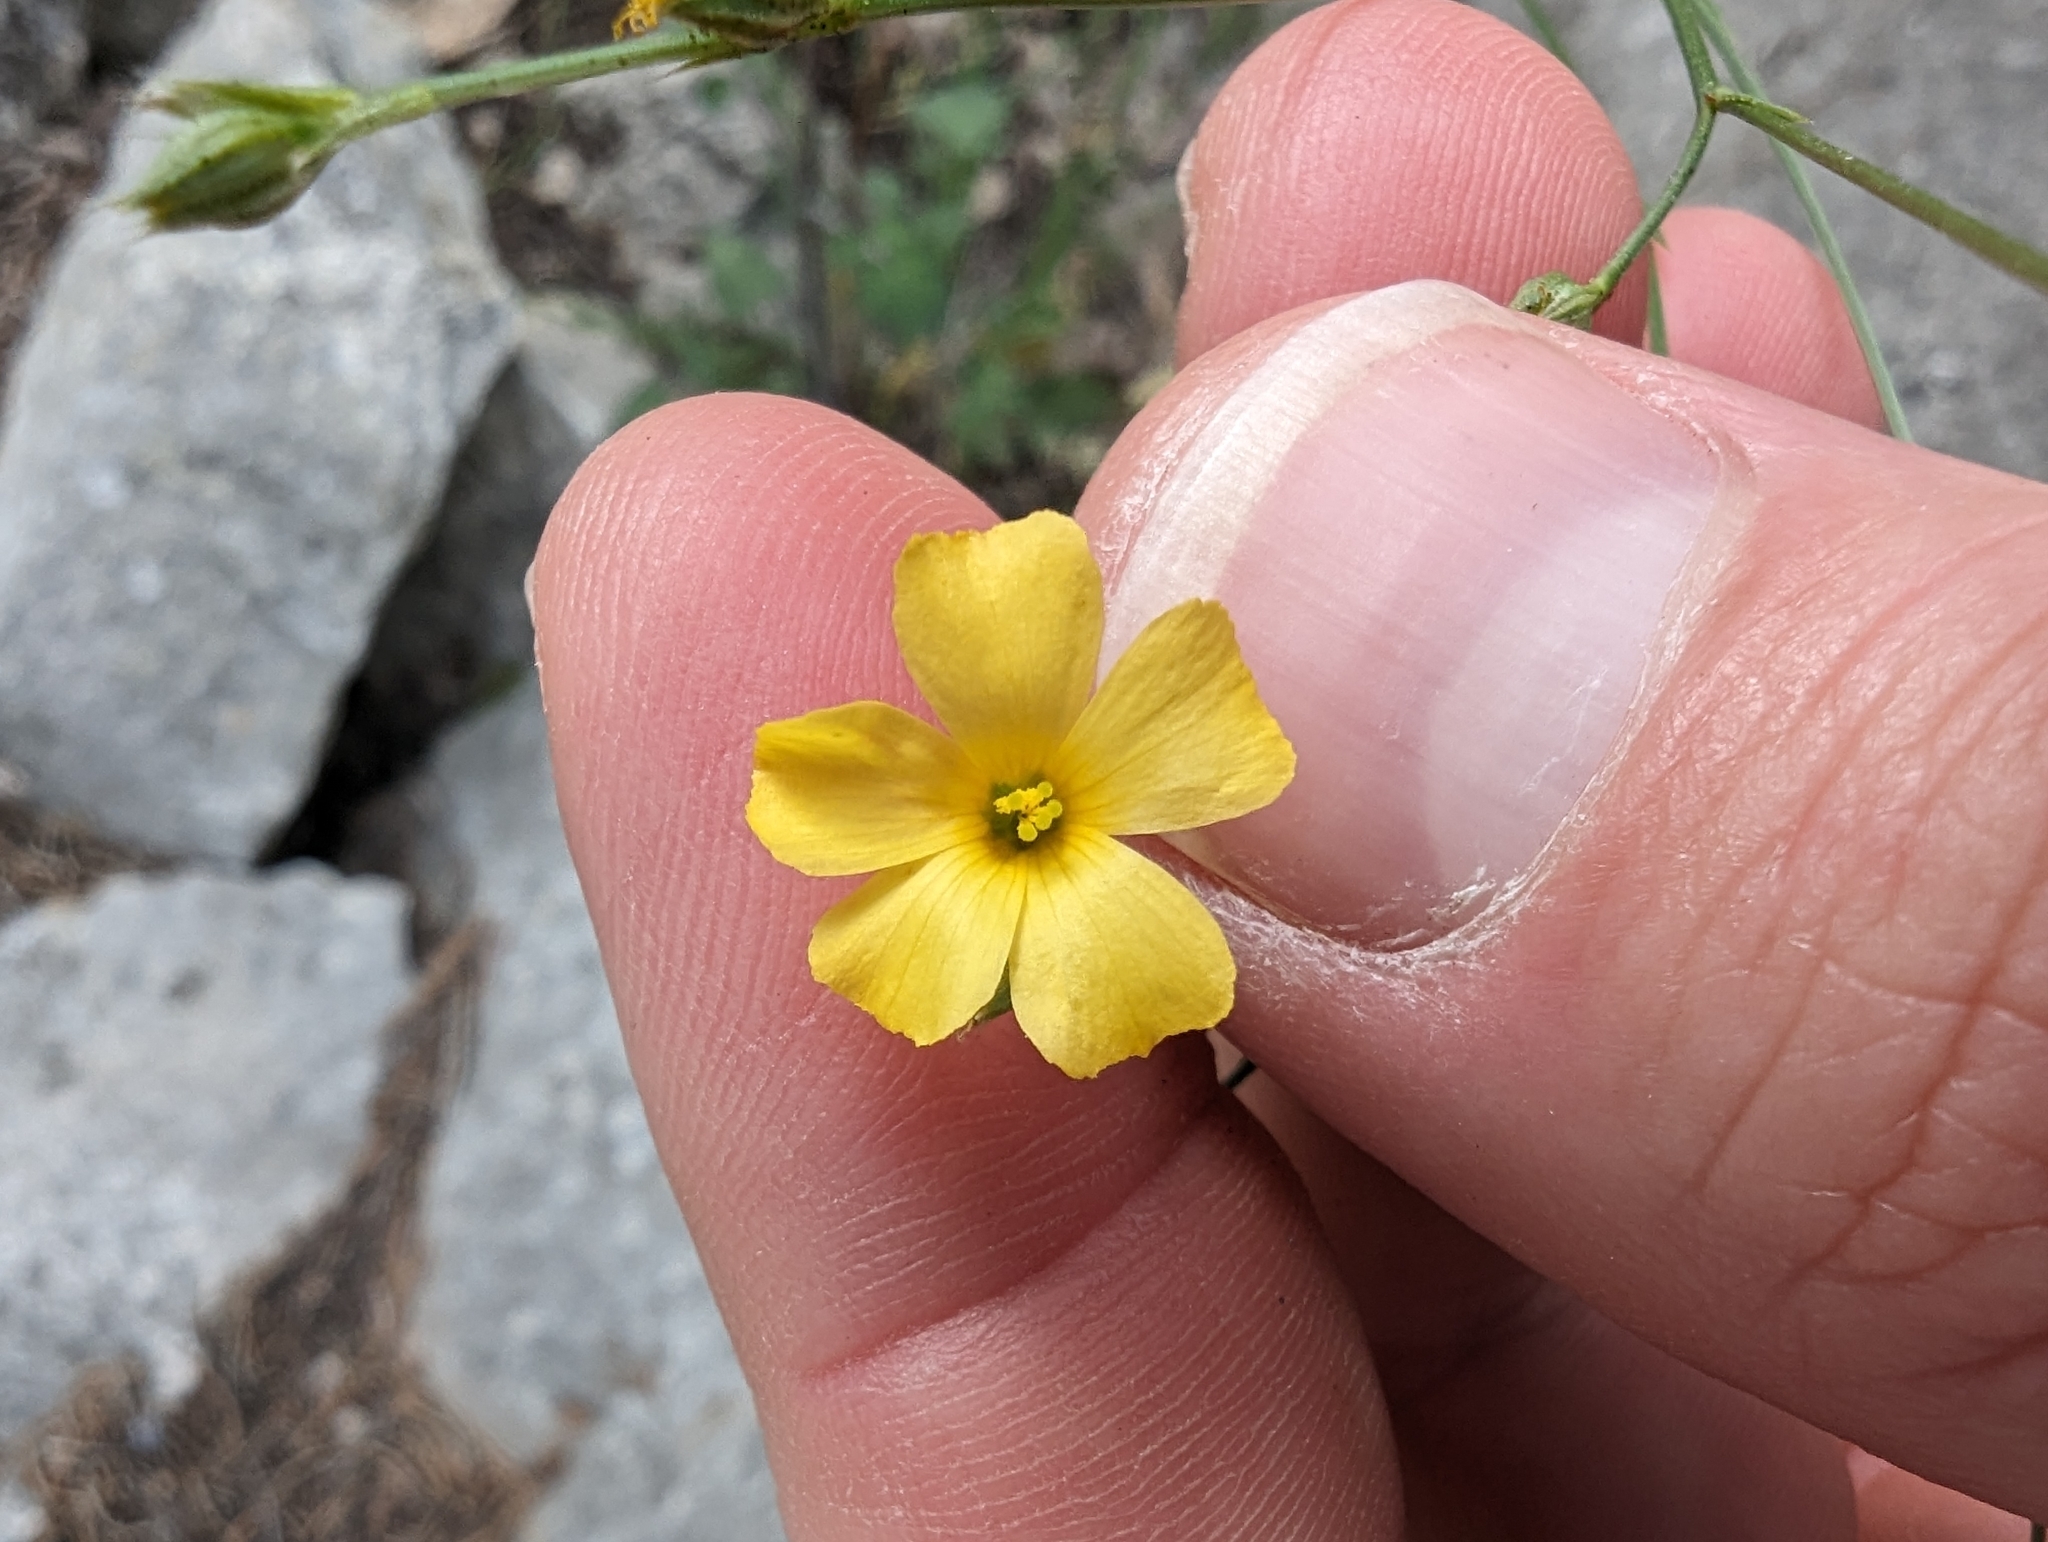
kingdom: Plantae
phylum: Tracheophyta
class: Magnoliopsida
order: Malpighiales
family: Linaceae
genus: Linum
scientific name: Linum rupestre
